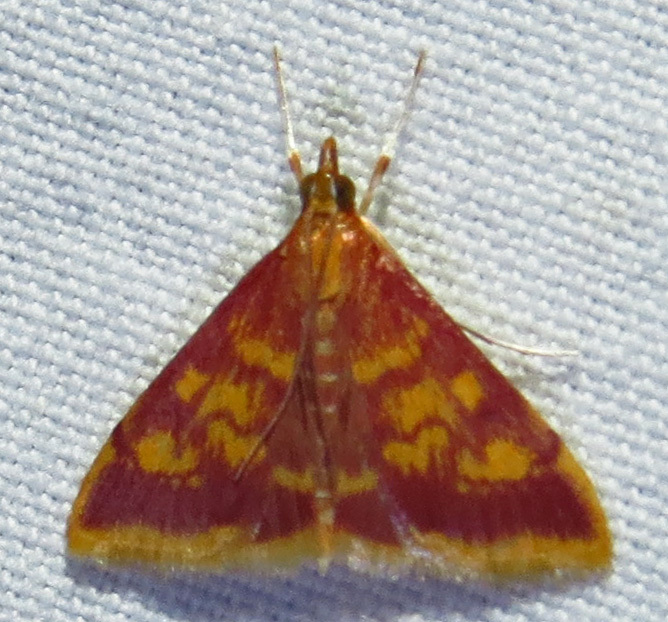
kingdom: Animalia
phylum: Arthropoda
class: Insecta
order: Lepidoptera
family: Crambidae
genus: Pyrausta
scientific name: Pyrausta acrionalis
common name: Mint-loving pyrausta moth
